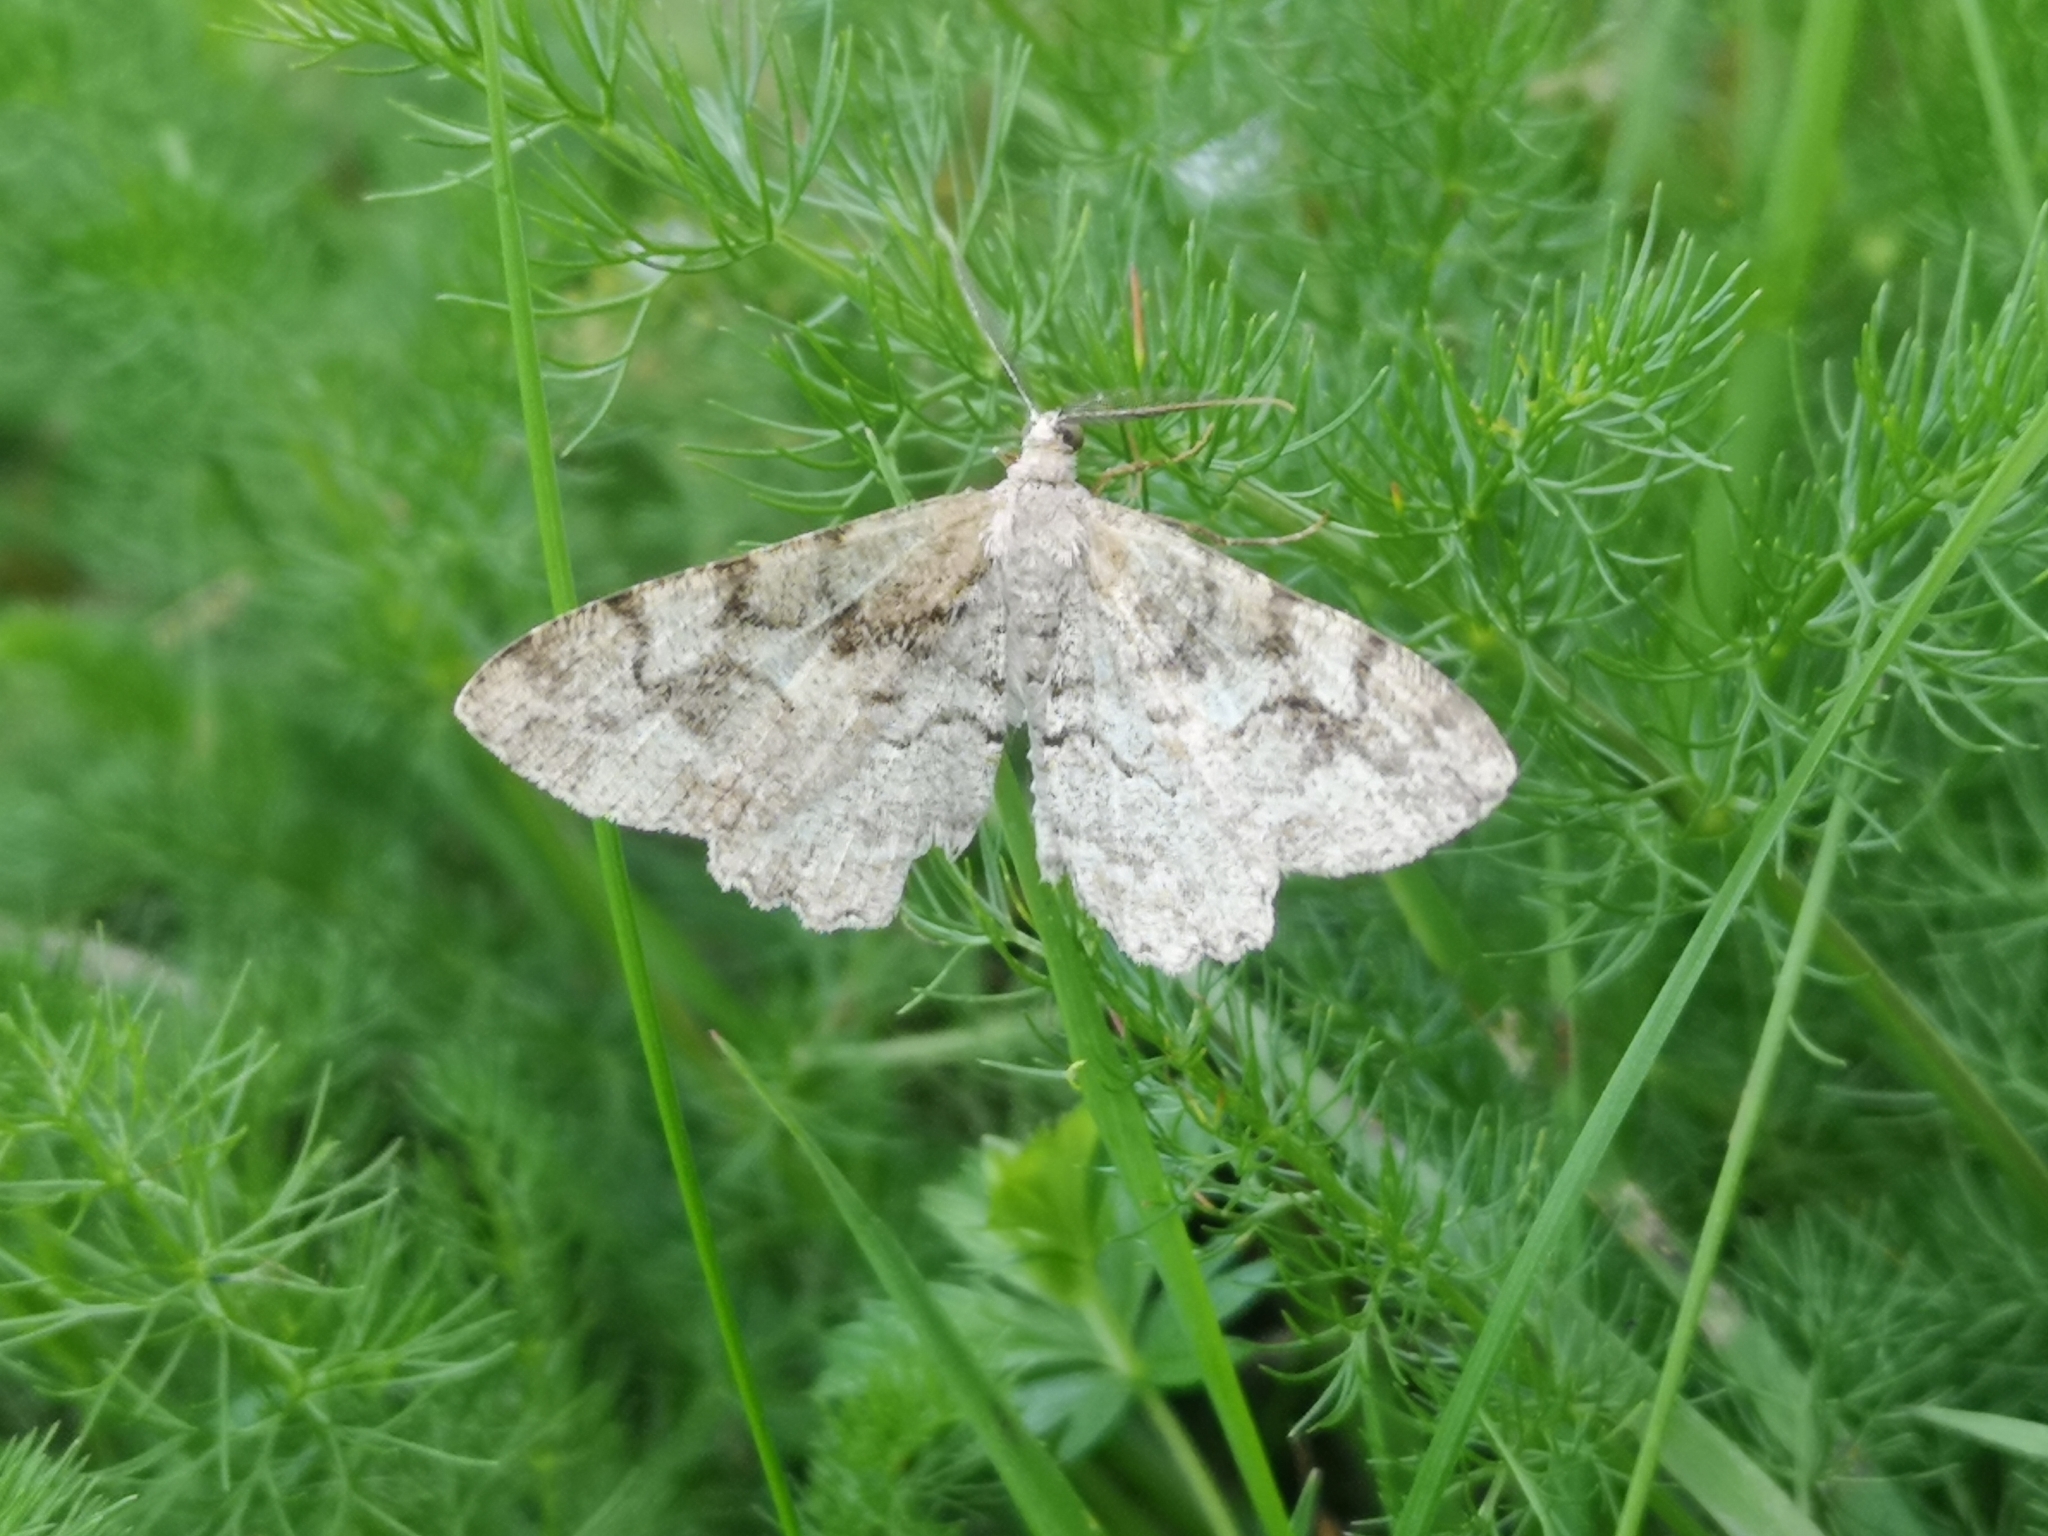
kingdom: Animalia
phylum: Arthropoda
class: Insecta
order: Lepidoptera
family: Geometridae
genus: Alcis
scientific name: Alcis repandata
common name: Mottled beauty
